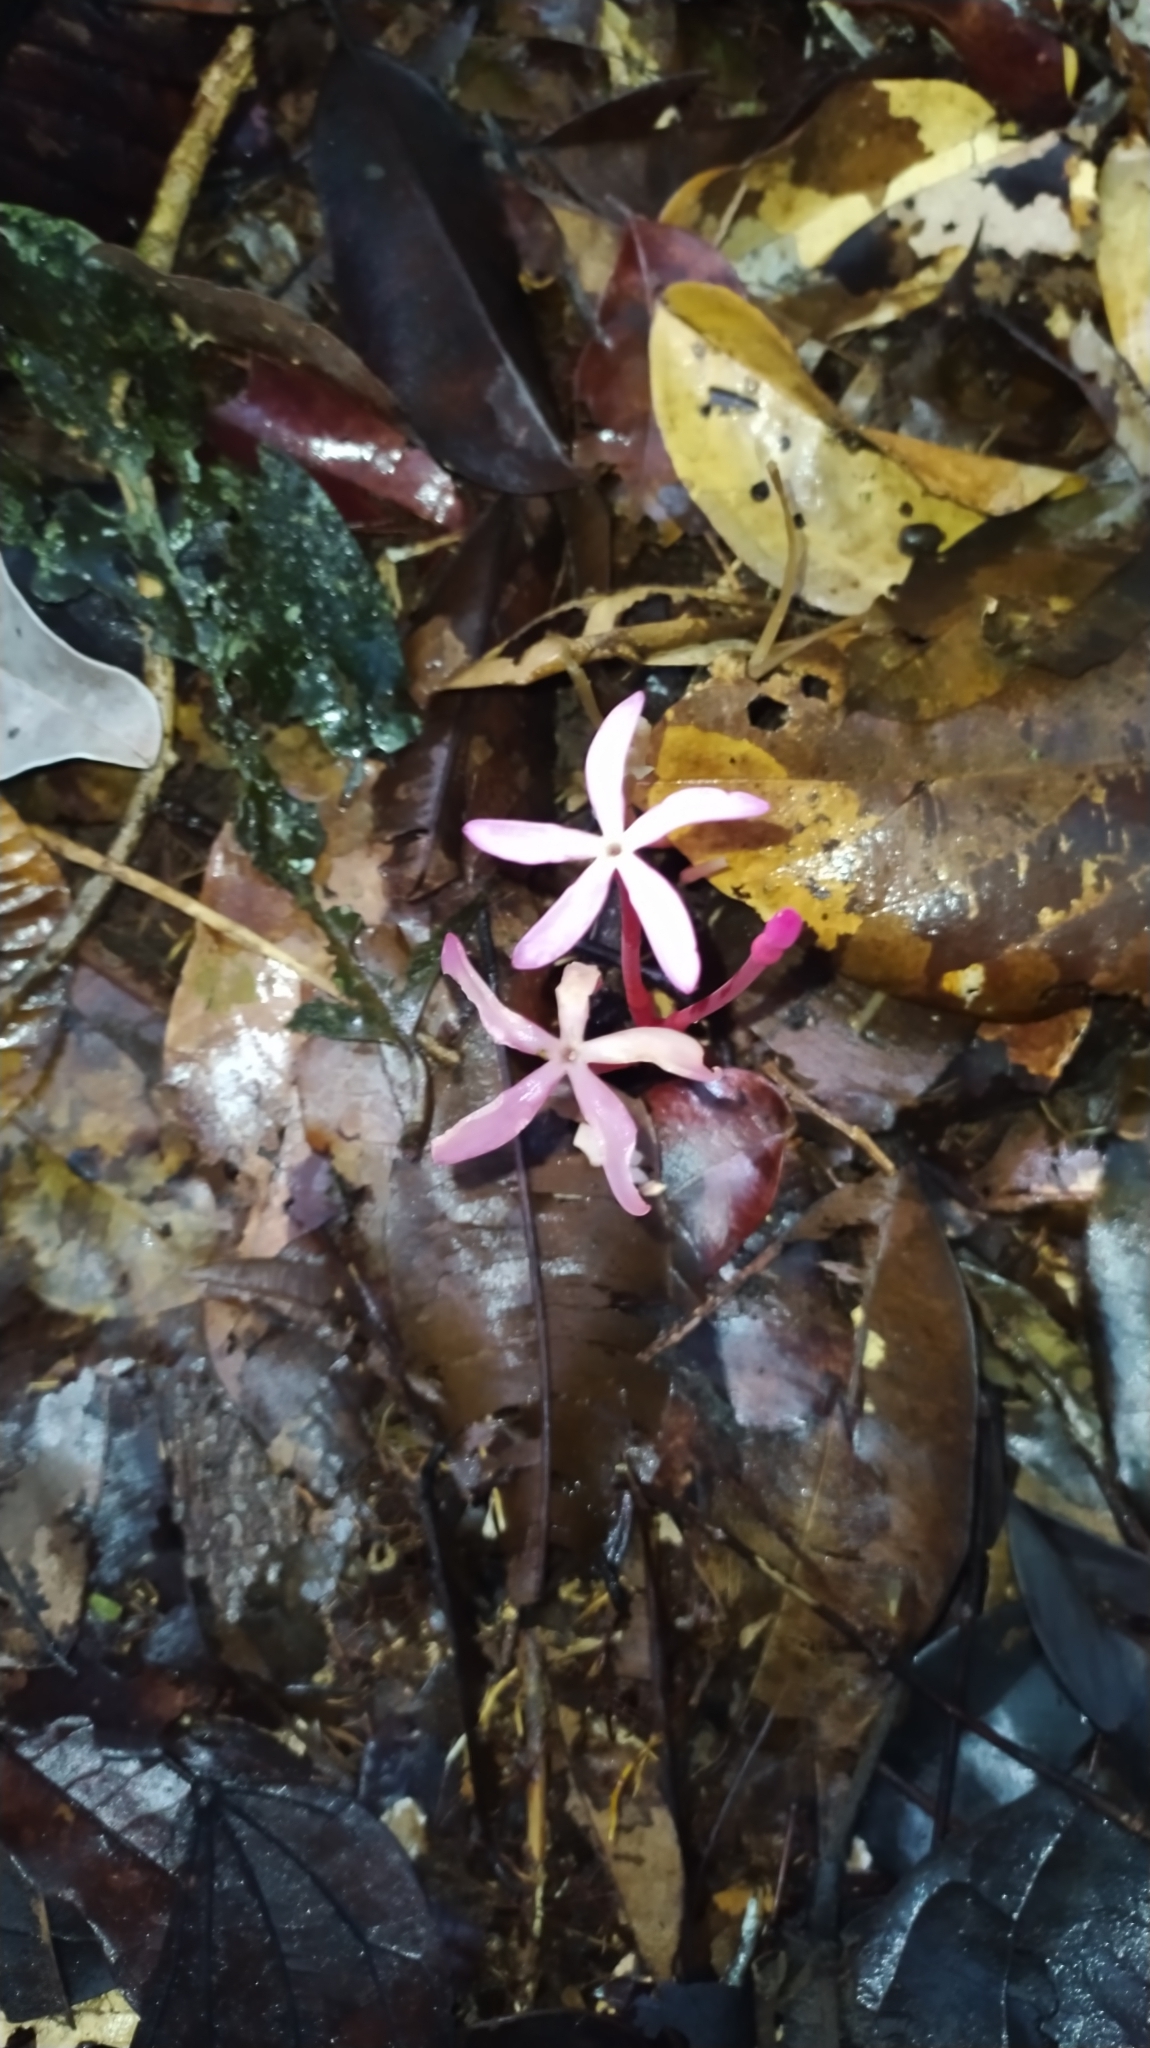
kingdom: Plantae
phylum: Tracheophyta
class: Magnoliopsida
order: Gentianales
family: Gentianaceae
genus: Voyria
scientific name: Voyria rosea
